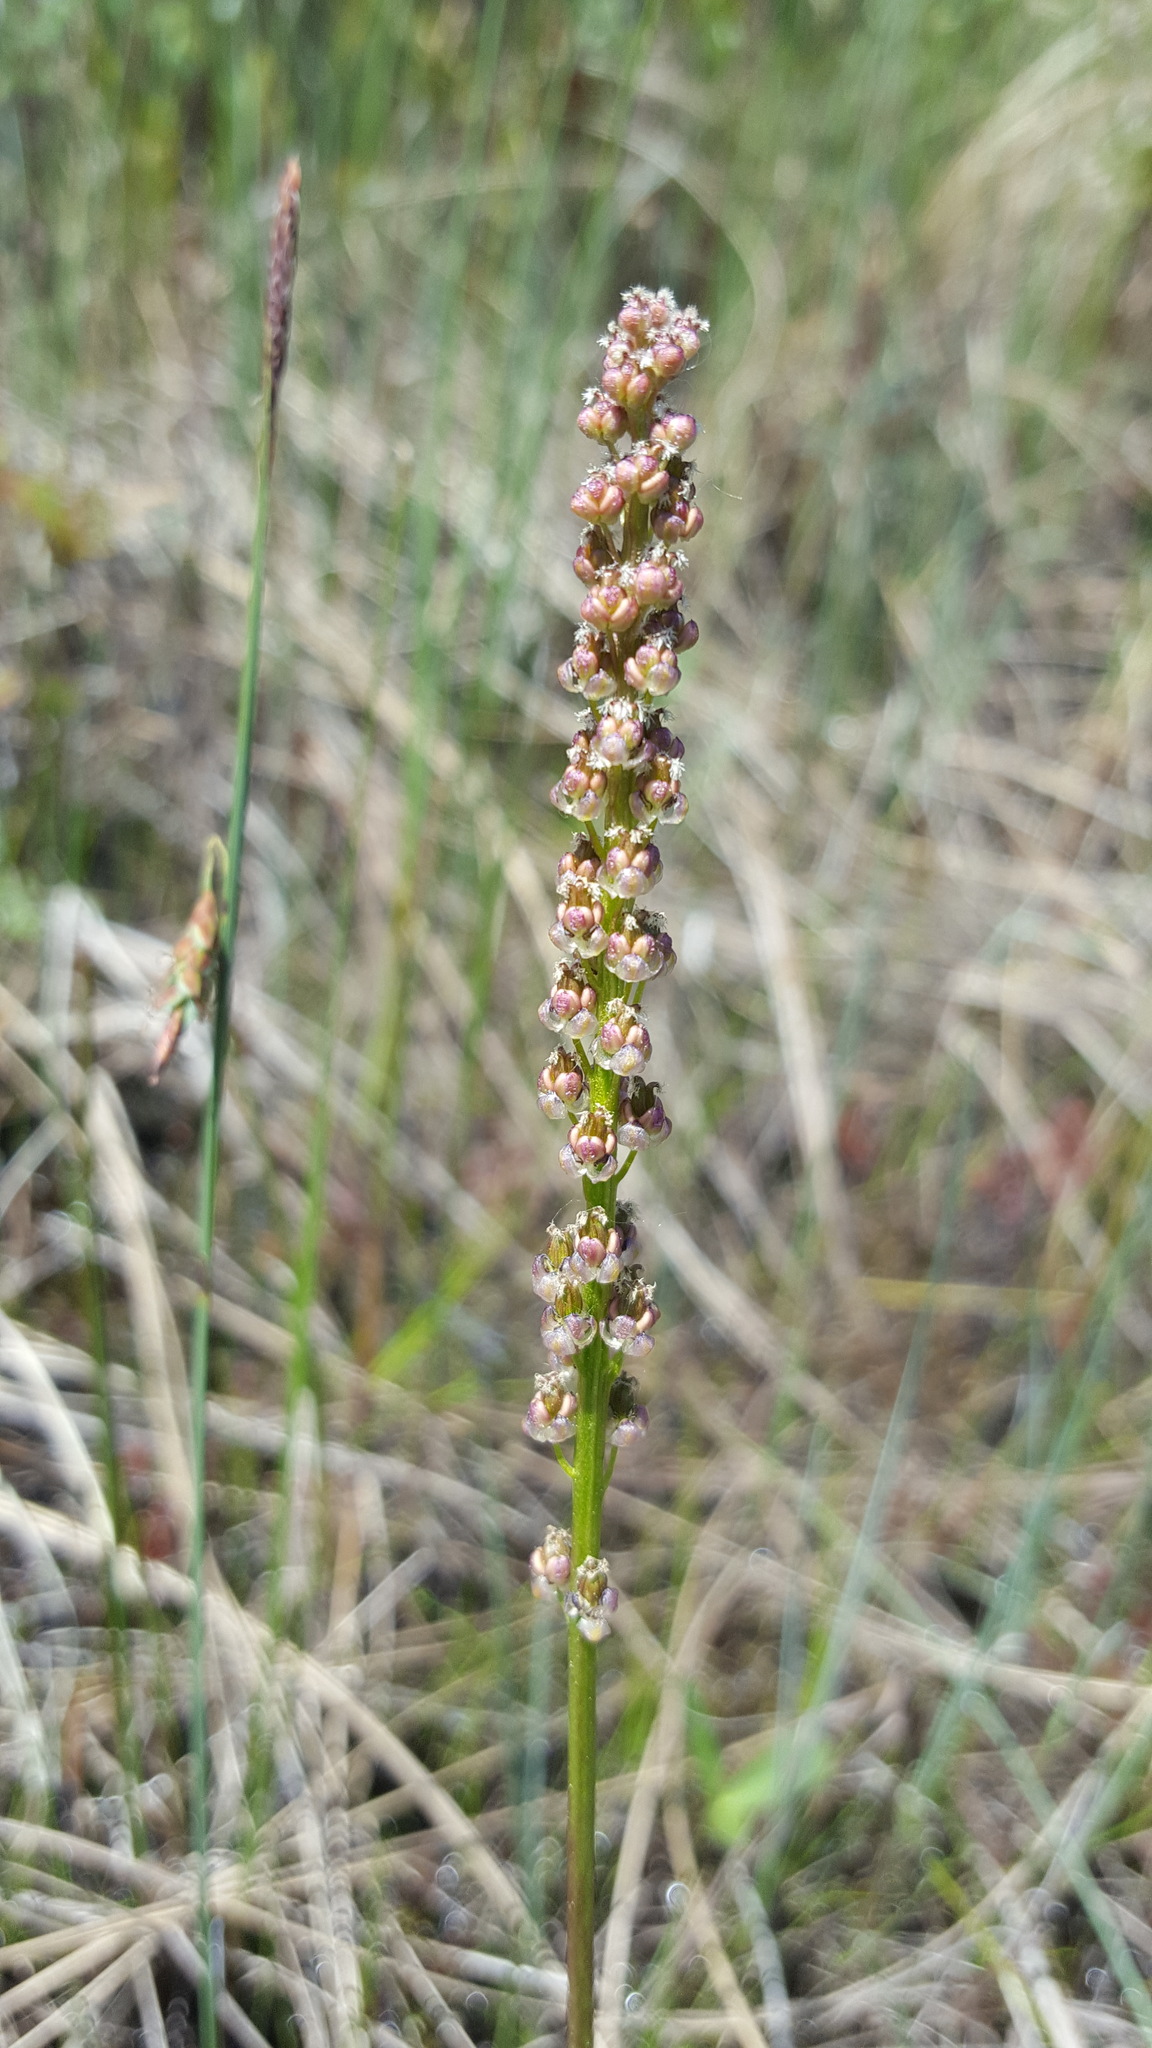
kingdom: Plantae
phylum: Tracheophyta
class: Liliopsida
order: Alismatales
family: Juncaginaceae
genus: Triglochin
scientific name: Triglochin maritima
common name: Sea arrowgrass
